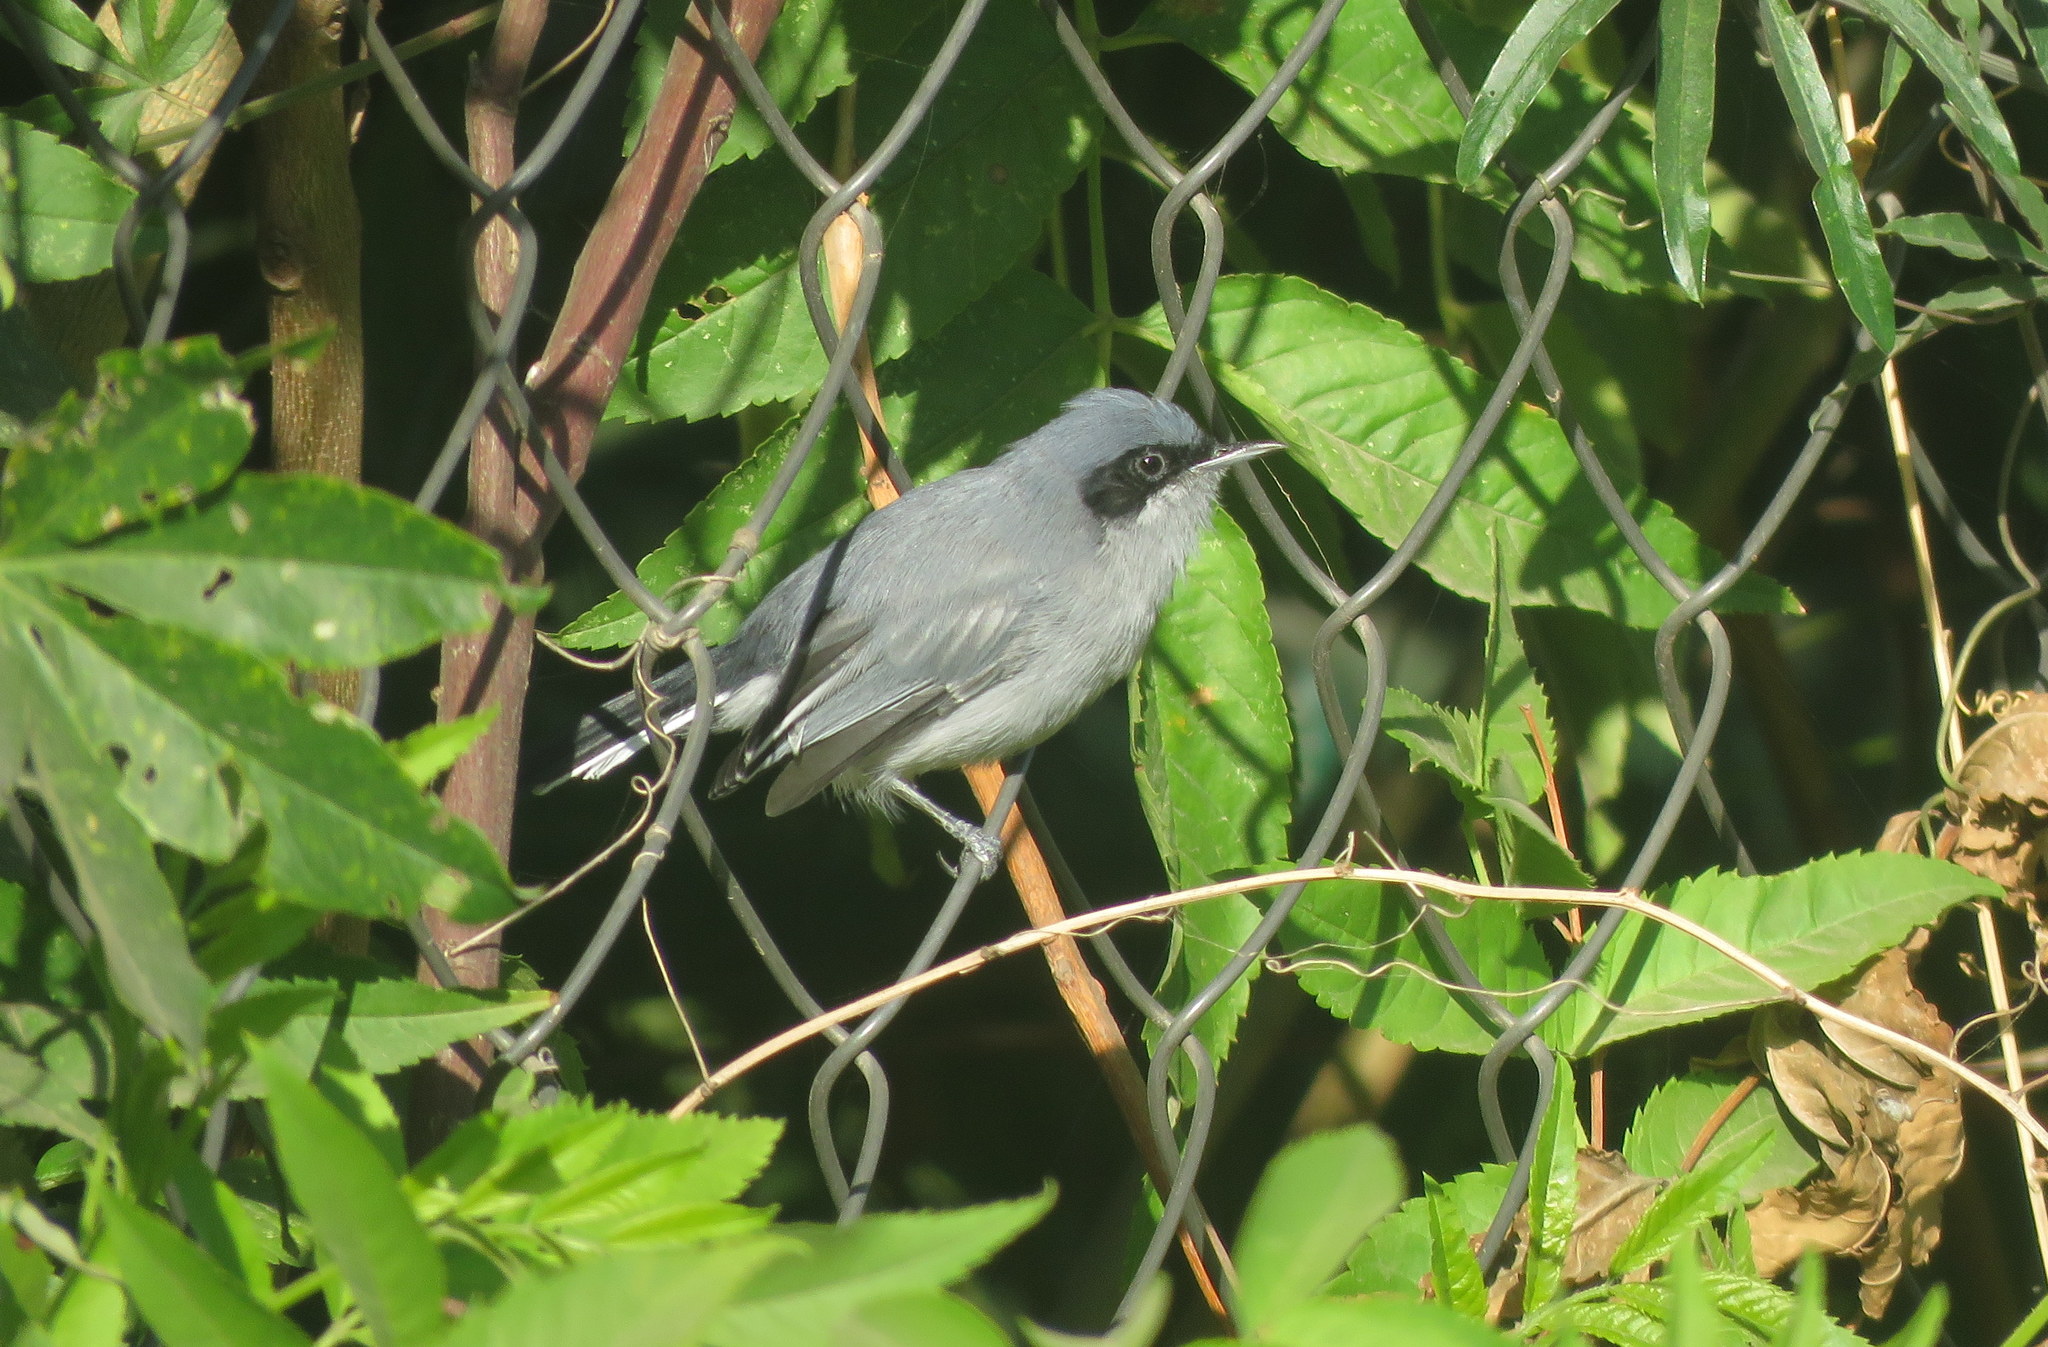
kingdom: Animalia
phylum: Chordata
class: Aves
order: Passeriformes
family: Polioptilidae
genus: Polioptila
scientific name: Polioptila dumicola
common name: Masked gnatcatcher
